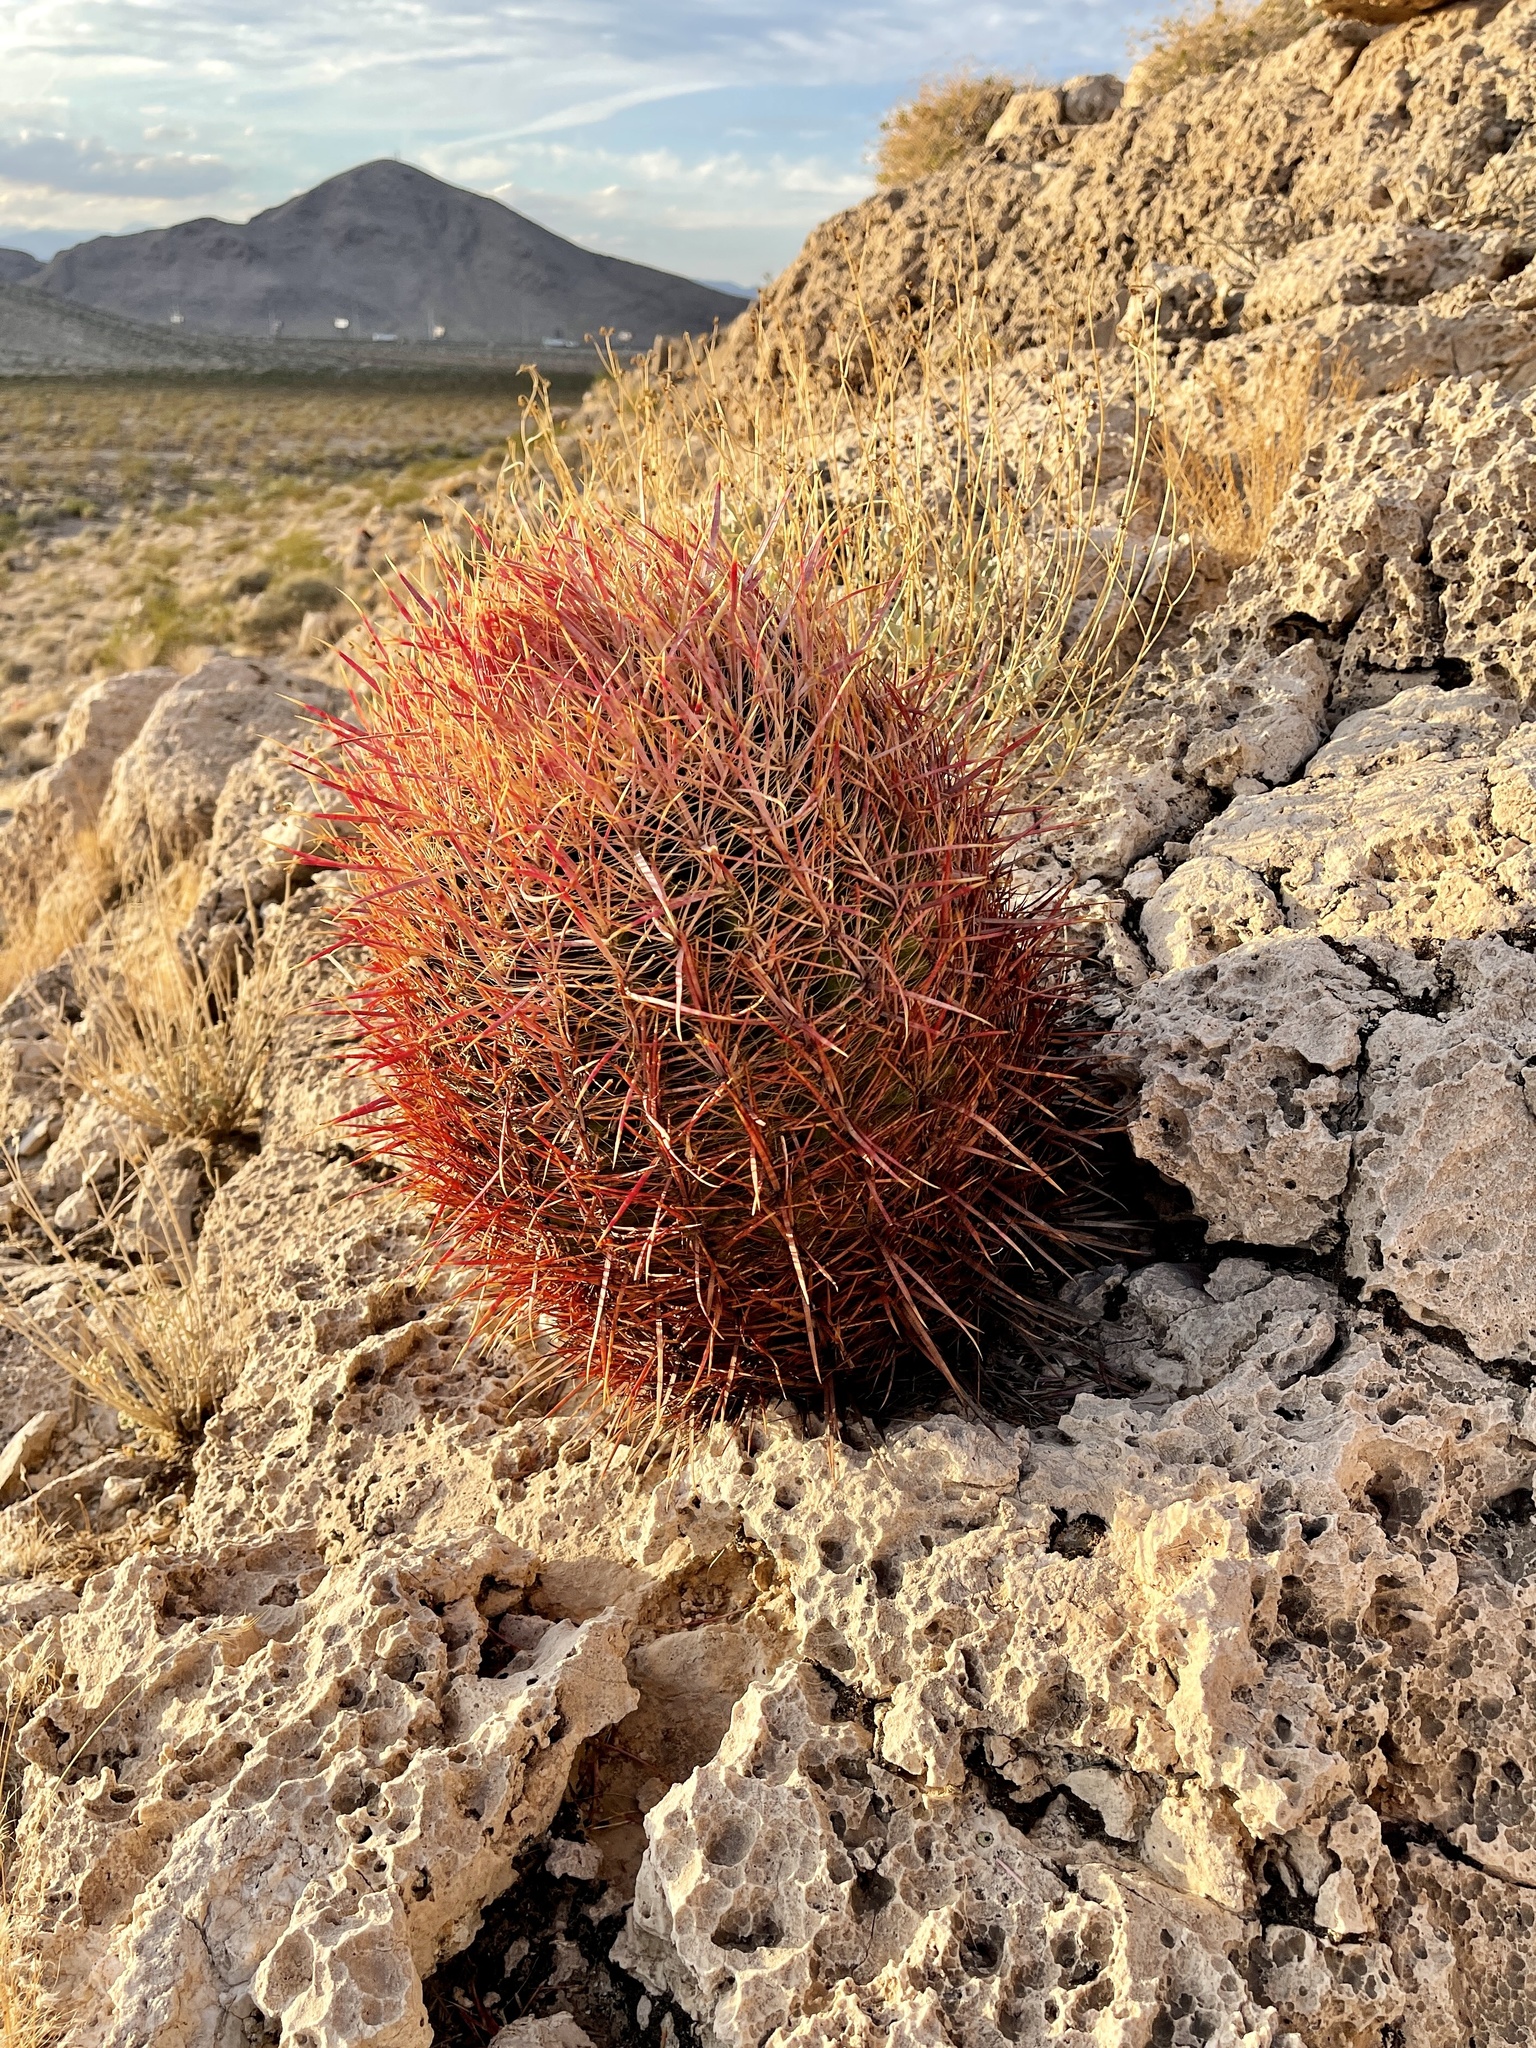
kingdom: Plantae
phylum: Tracheophyta
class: Magnoliopsida
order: Caryophyllales
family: Cactaceae
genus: Ferocactus
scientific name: Ferocactus cylindraceus
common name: California barrel cactus
